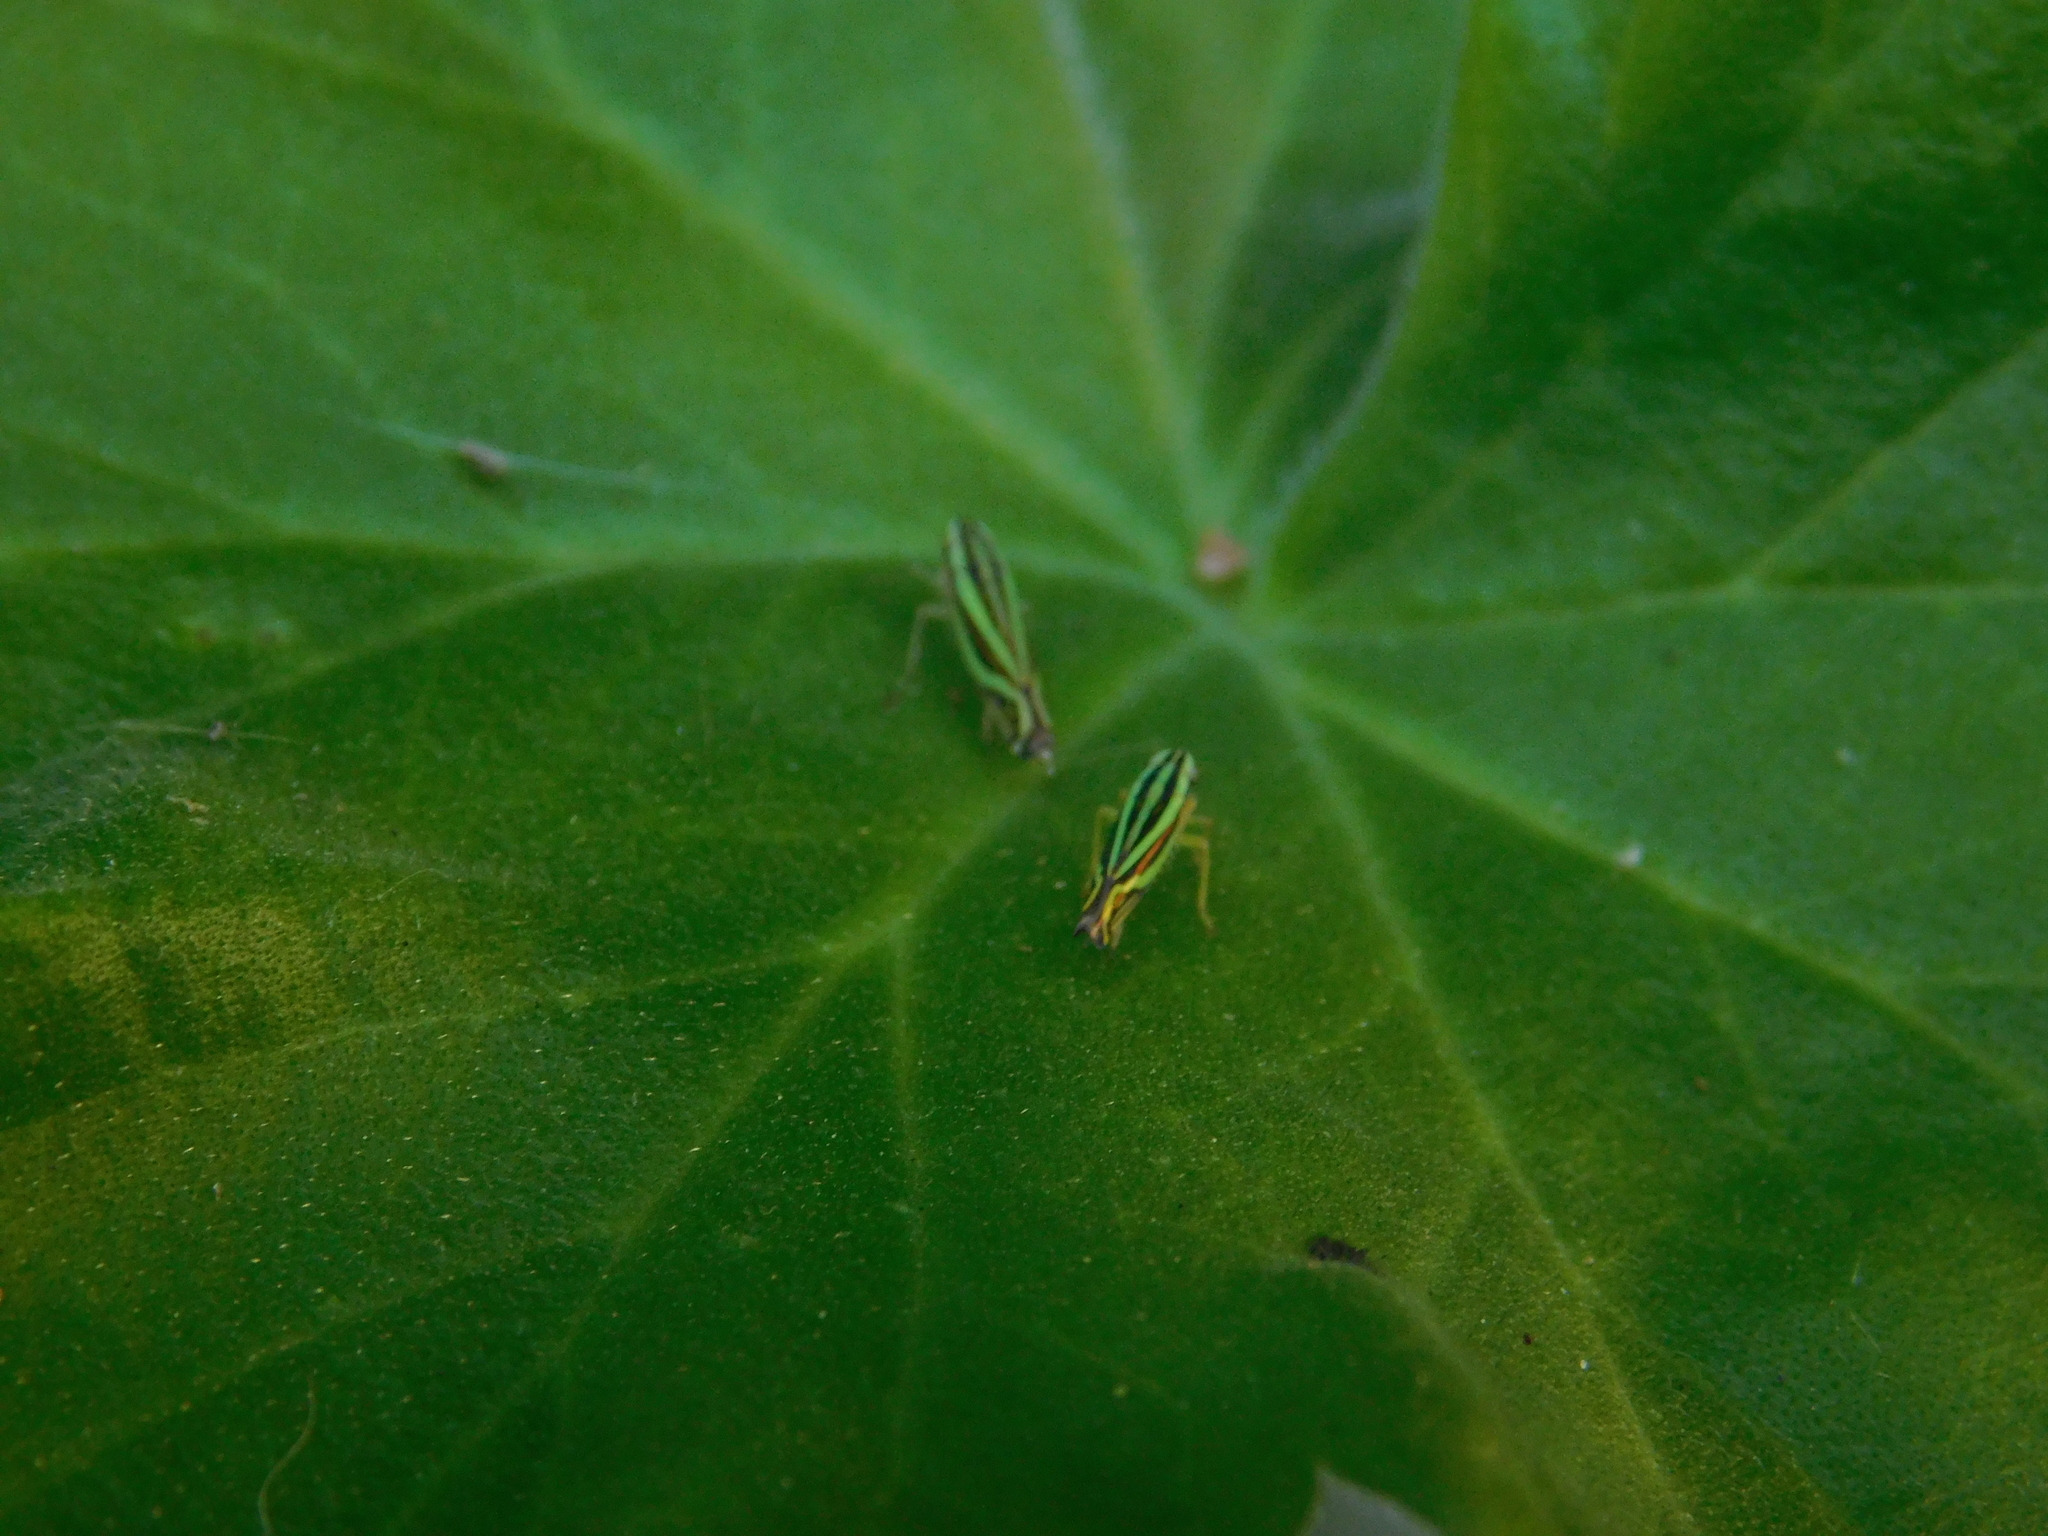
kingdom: Animalia
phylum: Arthropoda
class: Insecta
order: Hemiptera
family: Cicadellidae
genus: Sibovia
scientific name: Sibovia sagata
